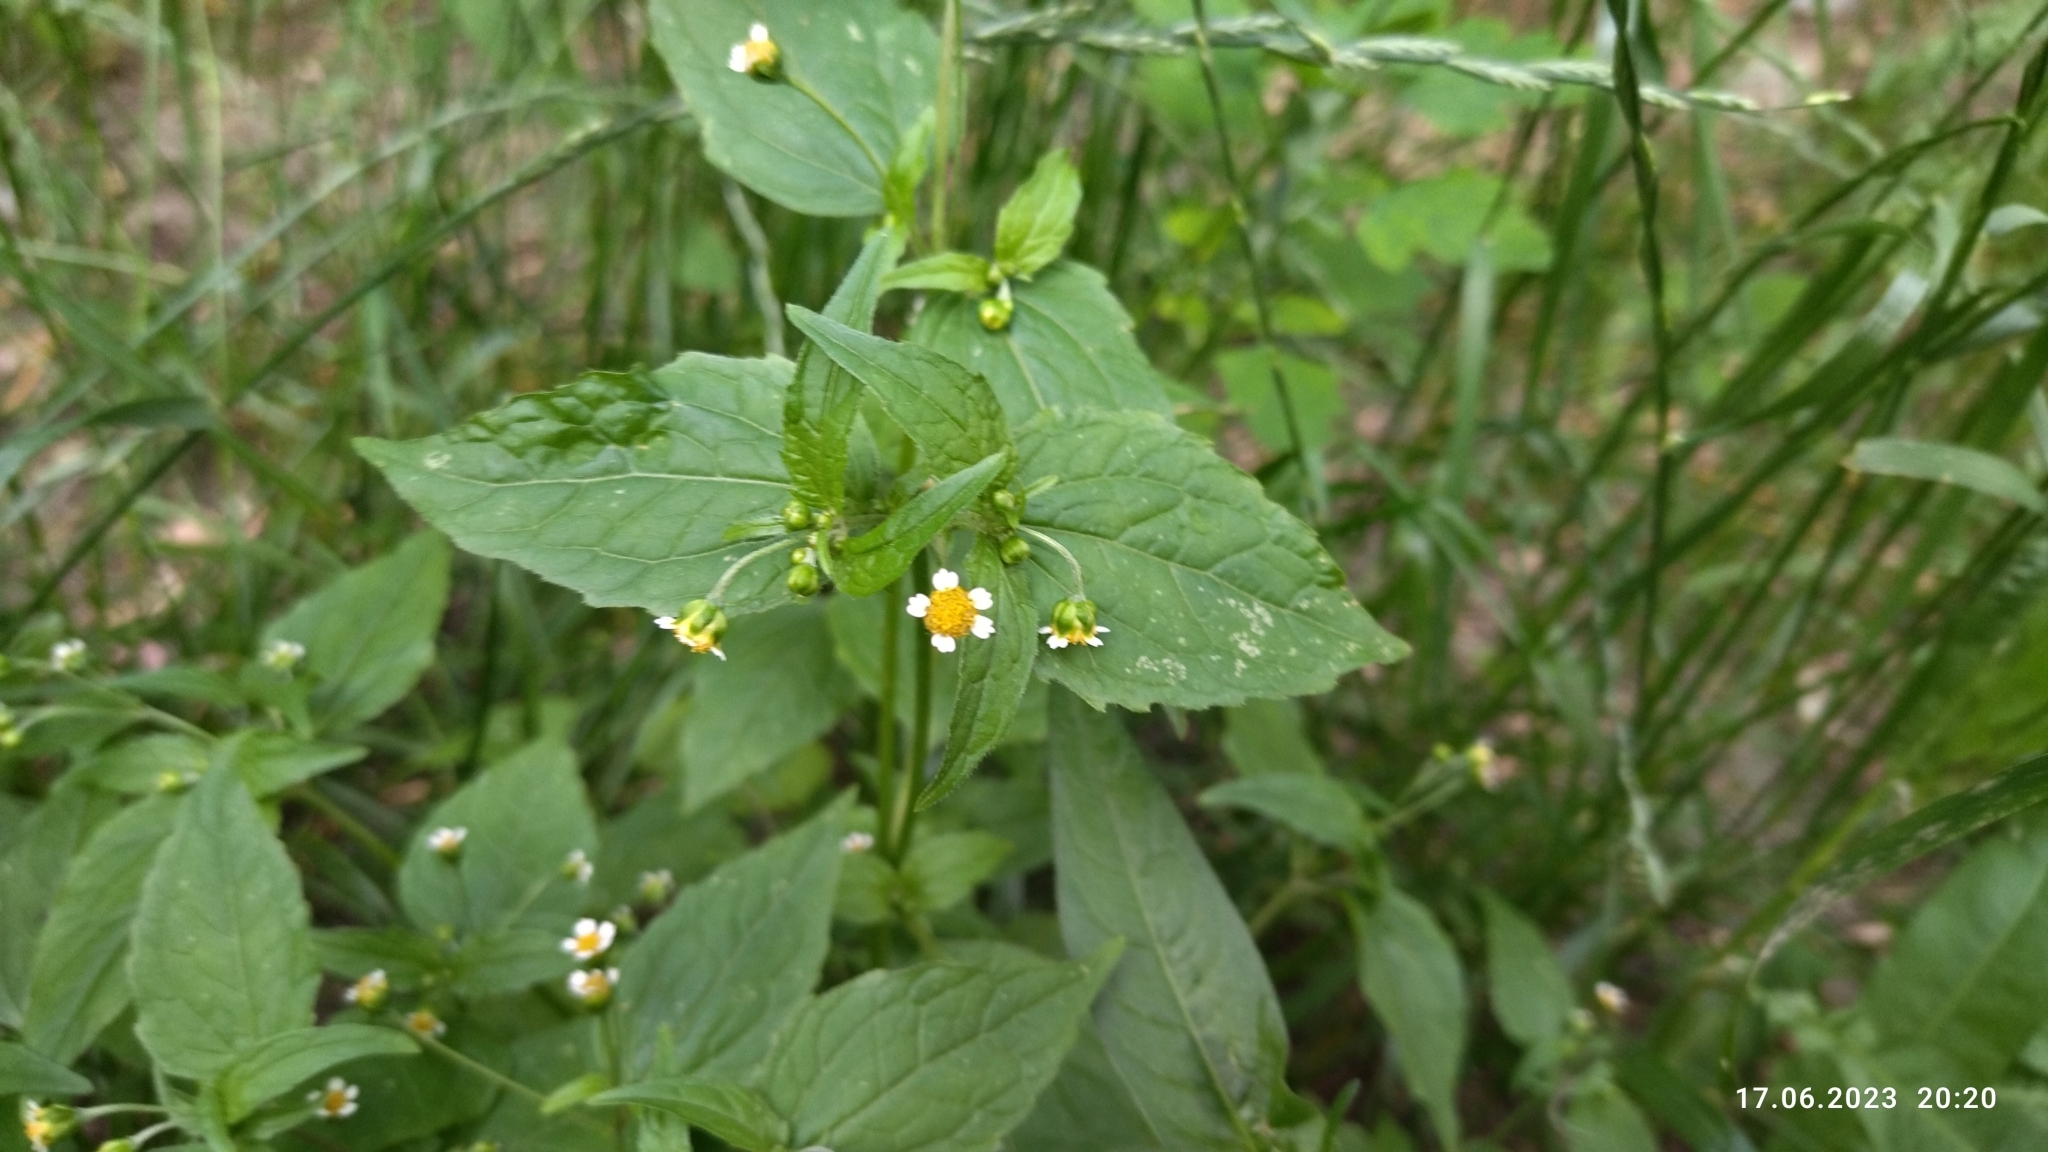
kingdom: Plantae
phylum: Tracheophyta
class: Magnoliopsida
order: Asterales
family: Asteraceae
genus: Galinsoga
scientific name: Galinsoga parviflora
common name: Gallant soldier
